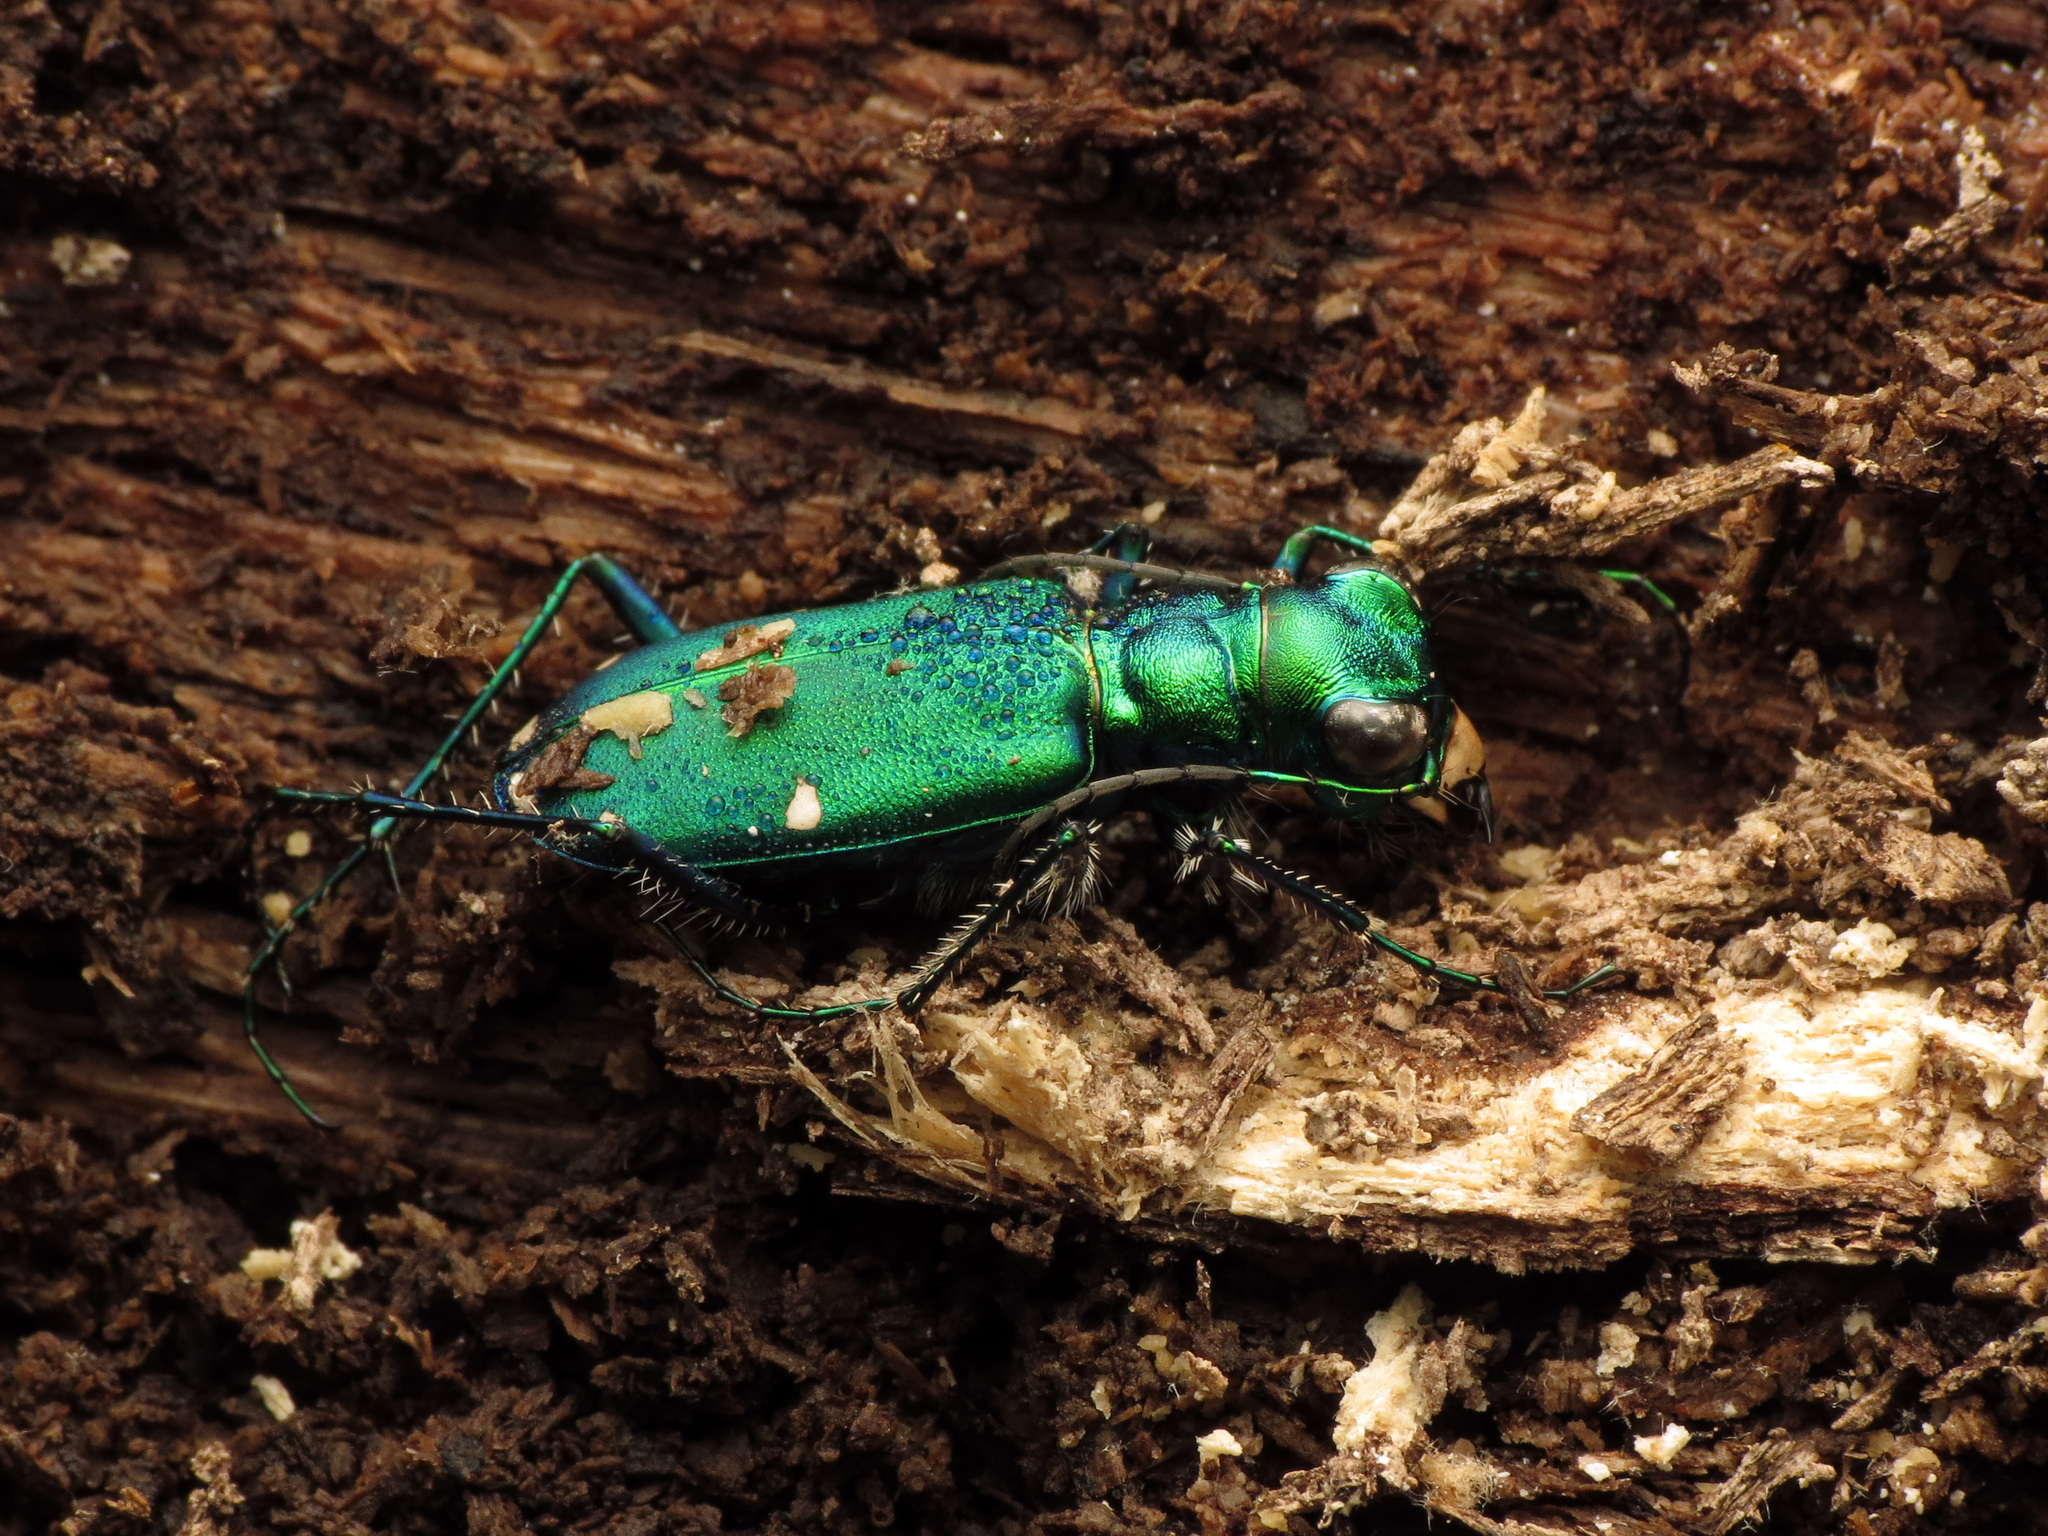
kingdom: Animalia
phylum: Arthropoda
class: Insecta
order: Coleoptera
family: Carabidae
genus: Cicindela
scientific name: Cicindela sexguttata
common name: Six-spotted tiger beetle
